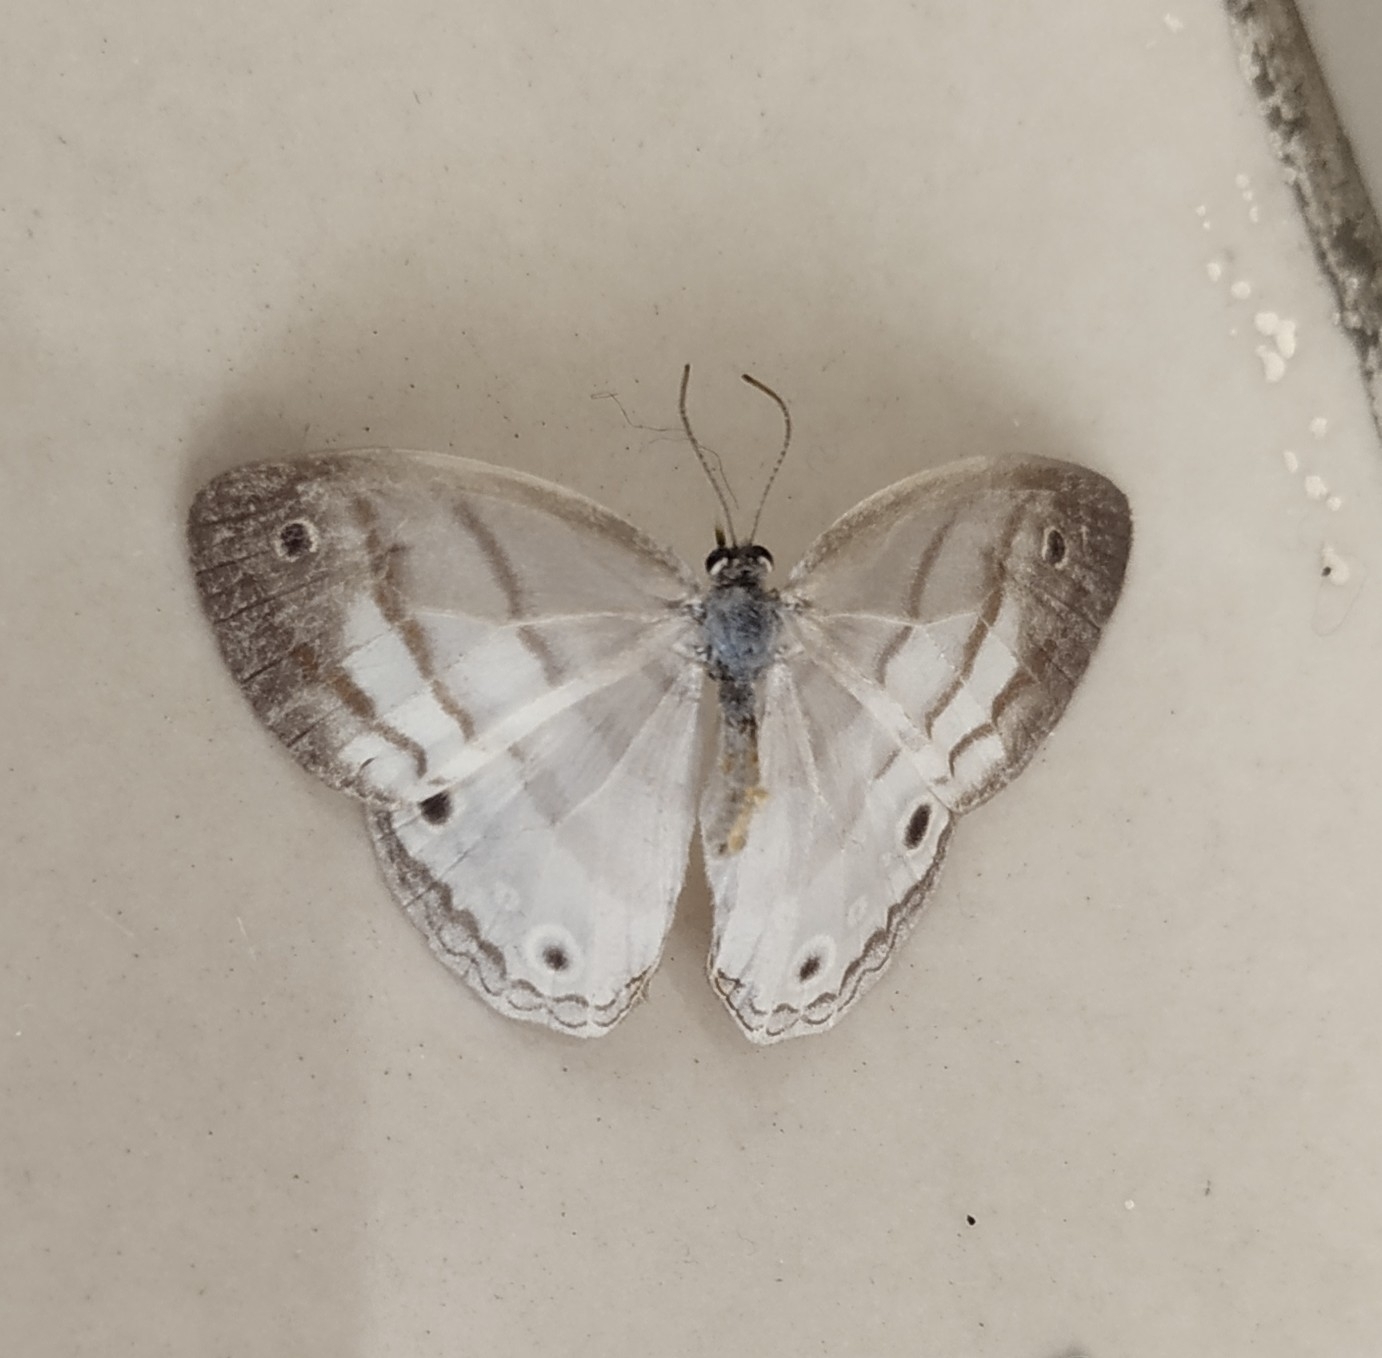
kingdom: Animalia
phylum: Arthropoda
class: Insecta
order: Lepidoptera
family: Nymphalidae
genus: Euptychia
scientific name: Euptychia mollina
